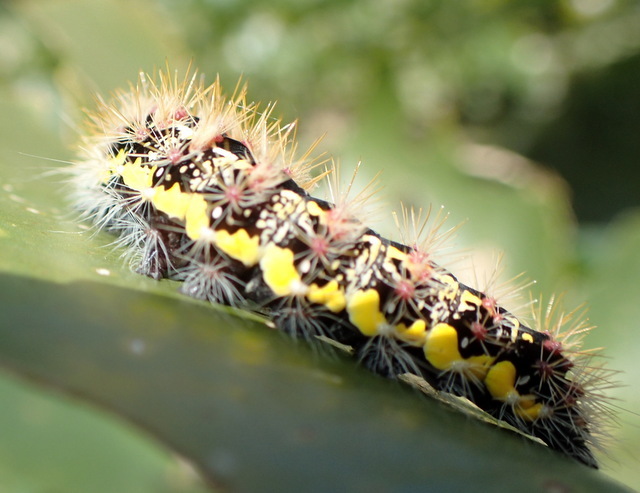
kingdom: Animalia
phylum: Arthropoda
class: Insecta
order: Lepidoptera
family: Noctuidae
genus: Acronicta
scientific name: Acronicta oblinita
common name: Smeared dagger
